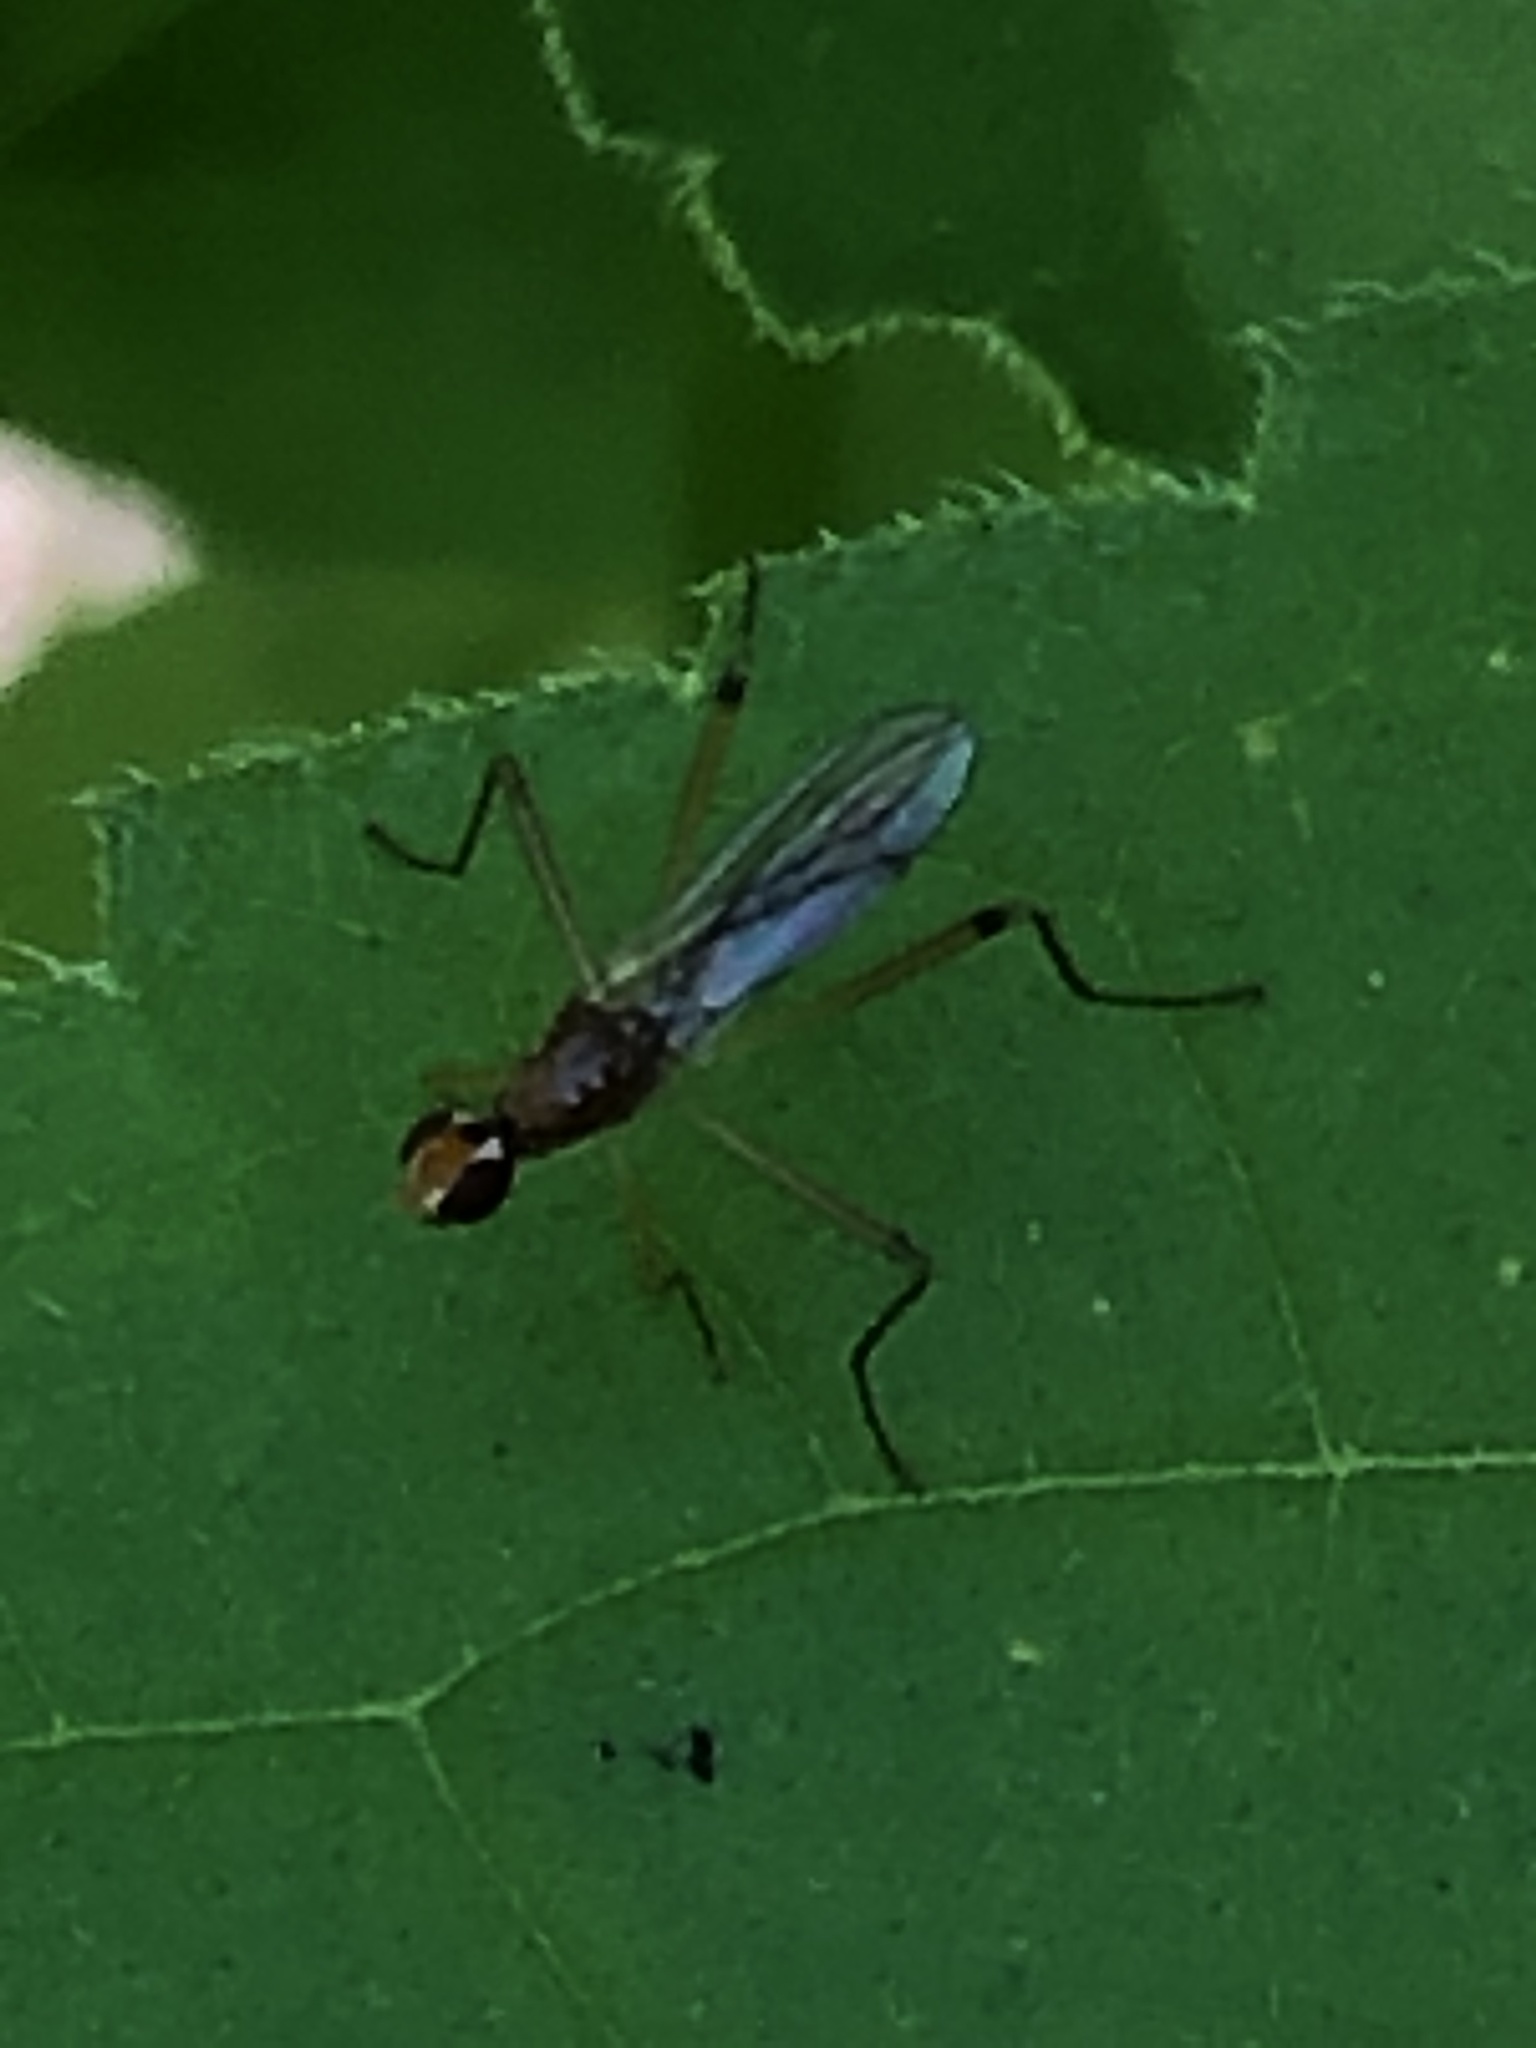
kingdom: Animalia
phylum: Arthropoda
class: Insecta
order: Diptera
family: Micropezidae
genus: Compsobata
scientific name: Compsobata univitta
